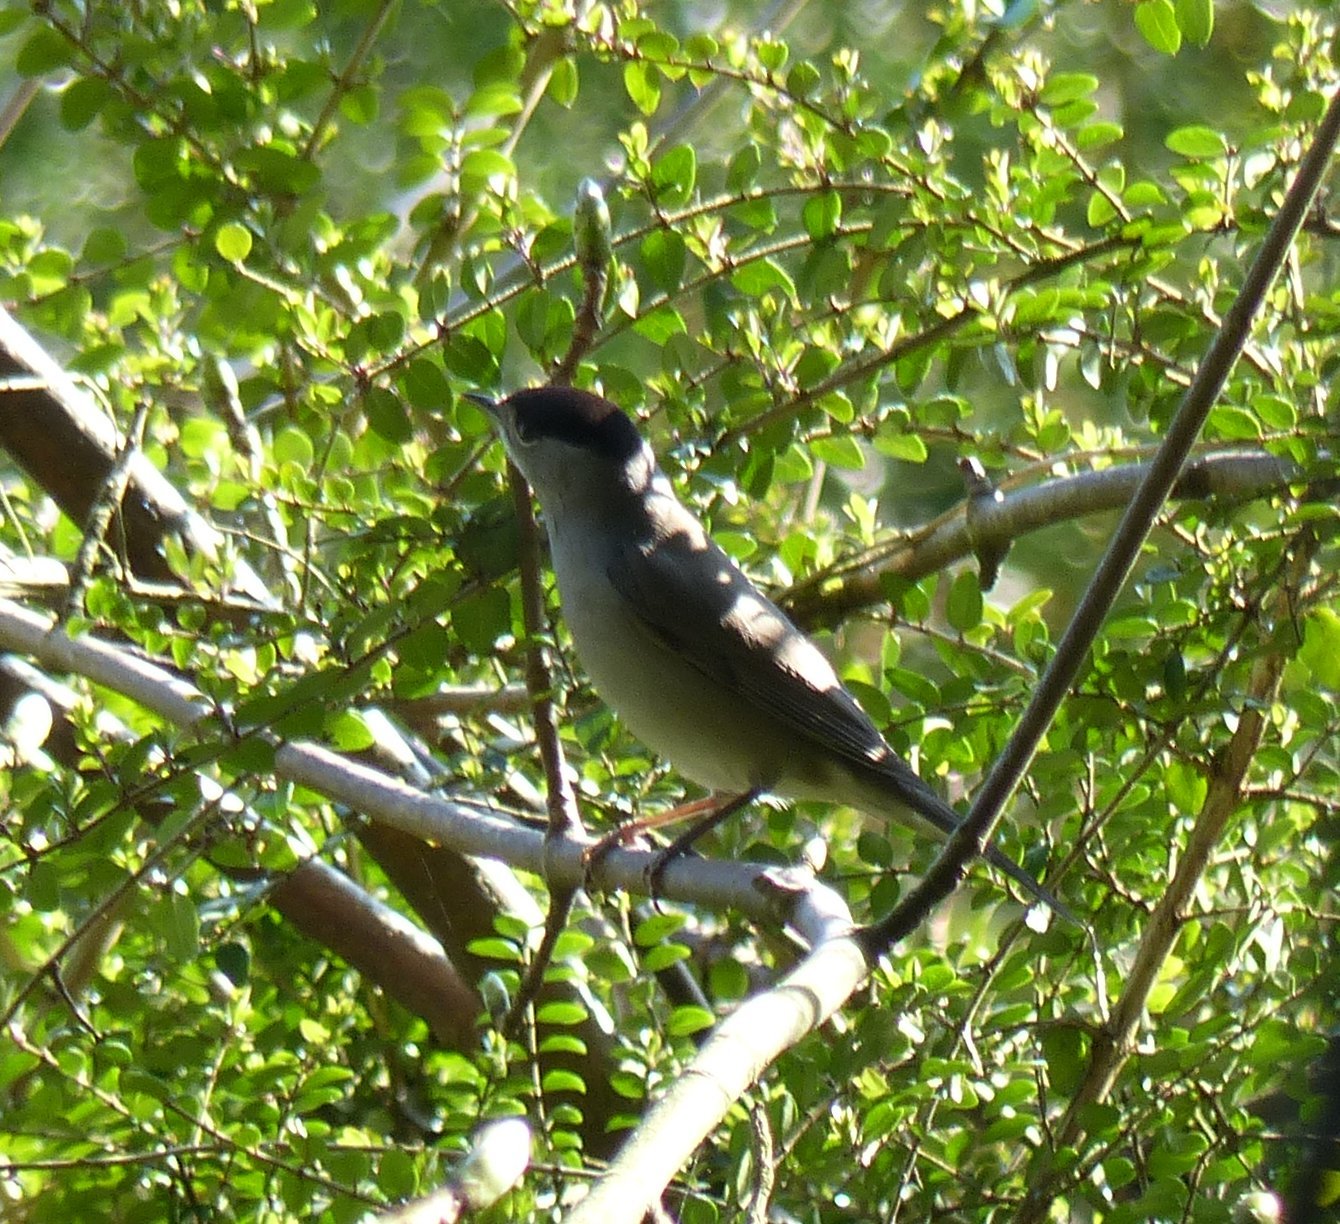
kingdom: Animalia
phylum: Chordata
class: Aves
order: Passeriformes
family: Sylviidae
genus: Sylvia
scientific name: Sylvia atricapilla
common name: Eurasian blackcap
